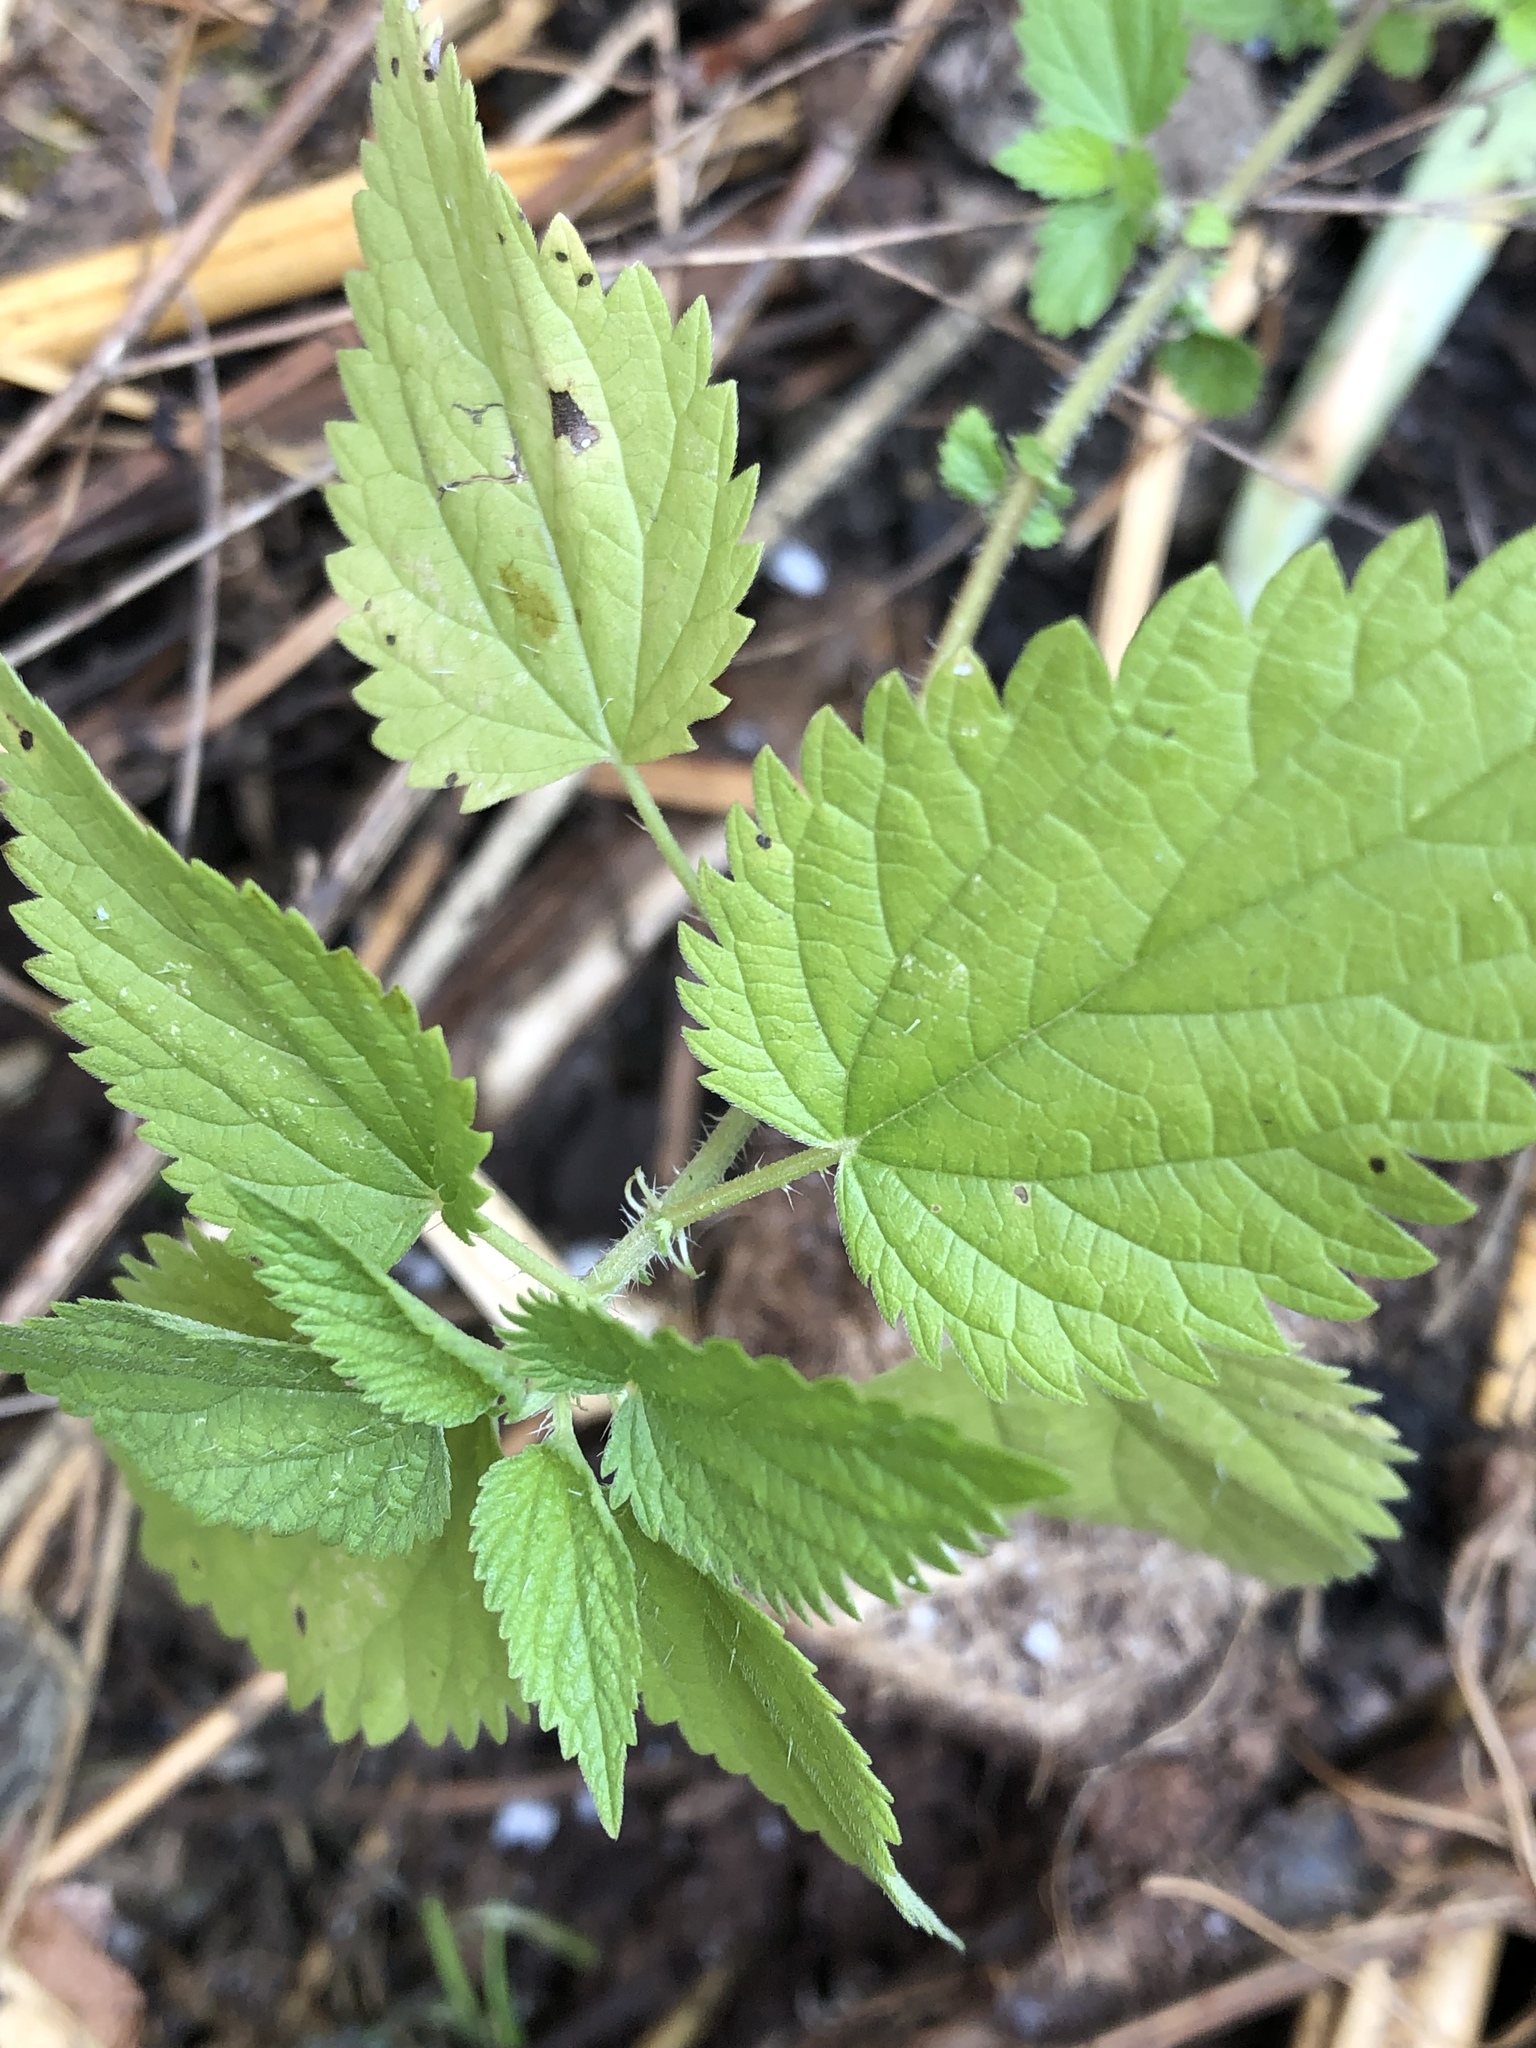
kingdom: Plantae
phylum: Tracheophyta
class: Magnoliopsida
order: Rosales
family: Urticaceae
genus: Urtica
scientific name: Urtica dioica
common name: Common nettle
